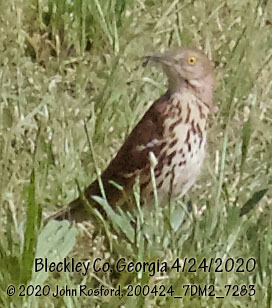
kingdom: Animalia
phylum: Chordata
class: Aves
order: Passeriformes
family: Mimidae
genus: Toxostoma
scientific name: Toxostoma rufum
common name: Brown thrasher
